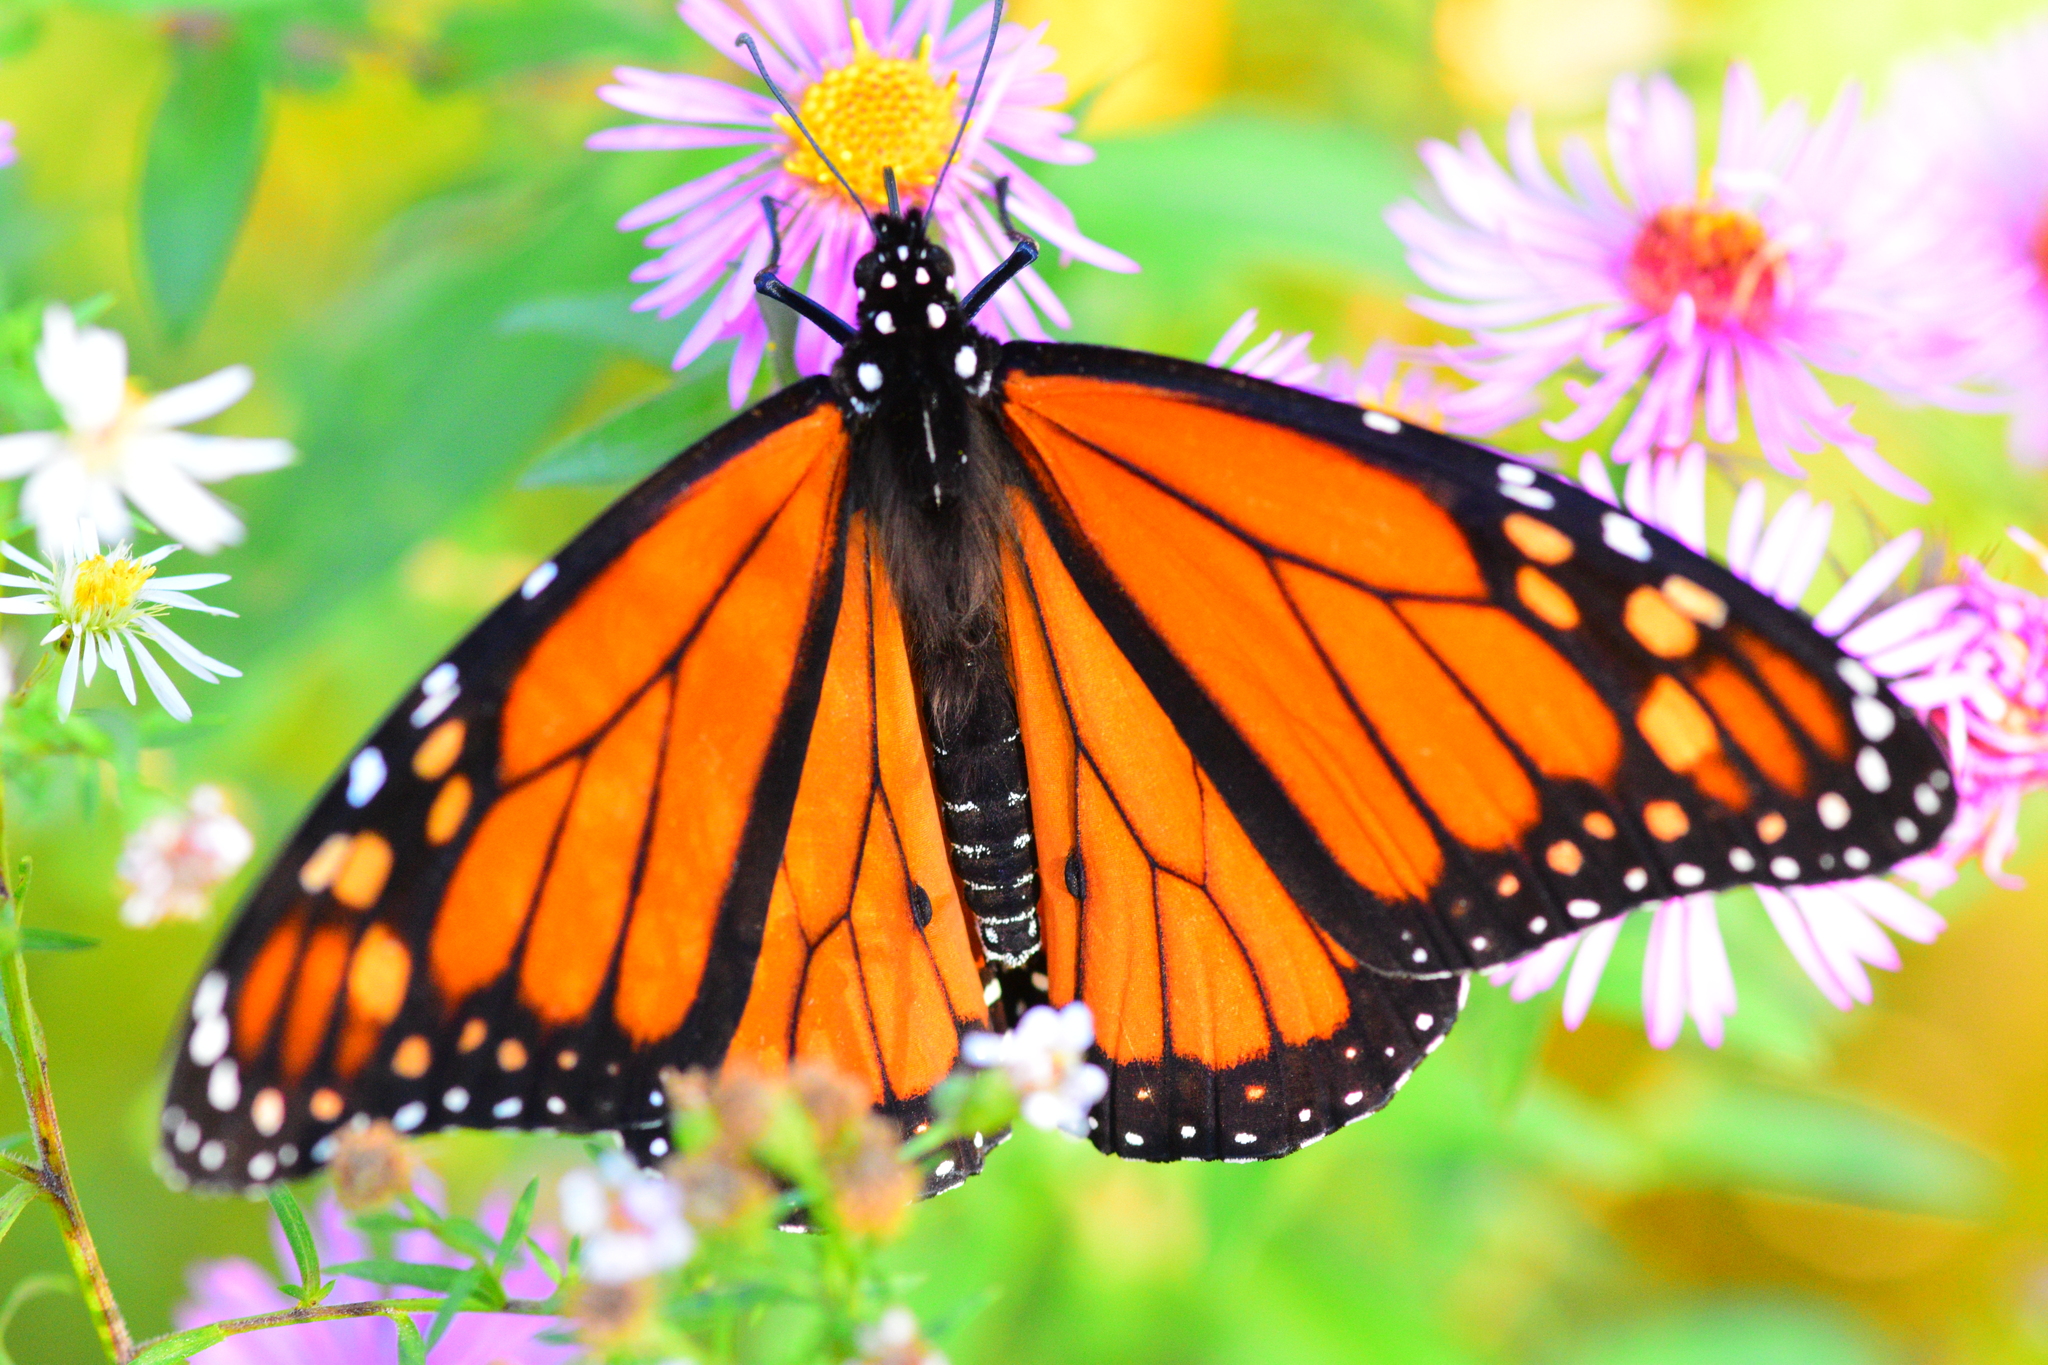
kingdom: Animalia
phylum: Arthropoda
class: Insecta
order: Lepidoptera
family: Nymphalidae
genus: Danaus
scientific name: Danaus plexippus
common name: Monarch
